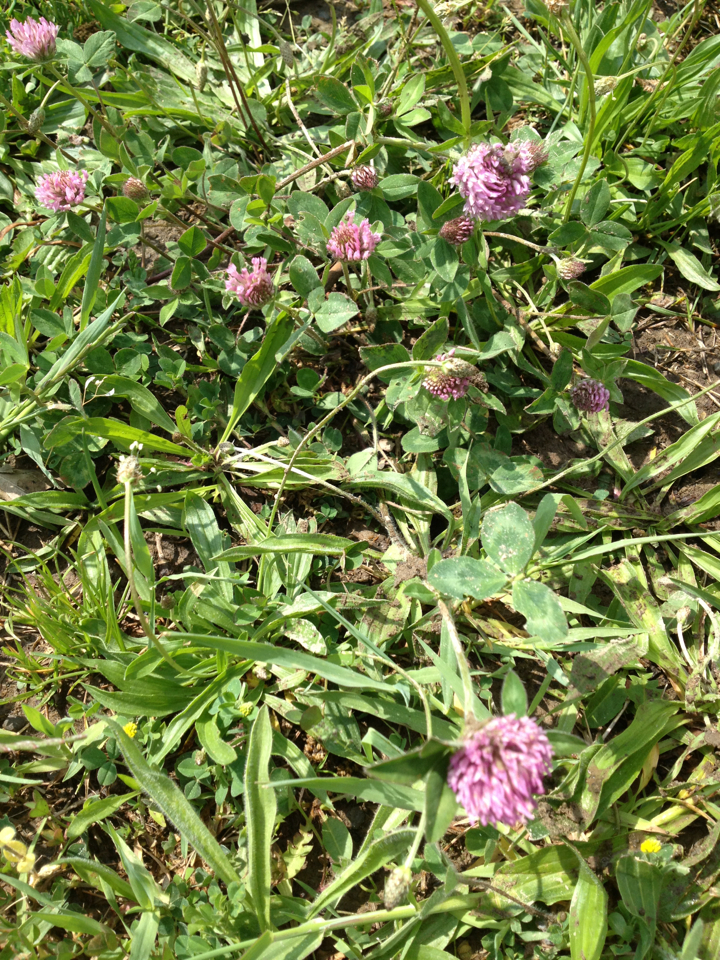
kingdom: Plantae
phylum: Tracheophyta
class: Magnoliopsida
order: Fabales
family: Fabaceae
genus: Trifolium
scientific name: Trifolium pratense
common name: Red clover
